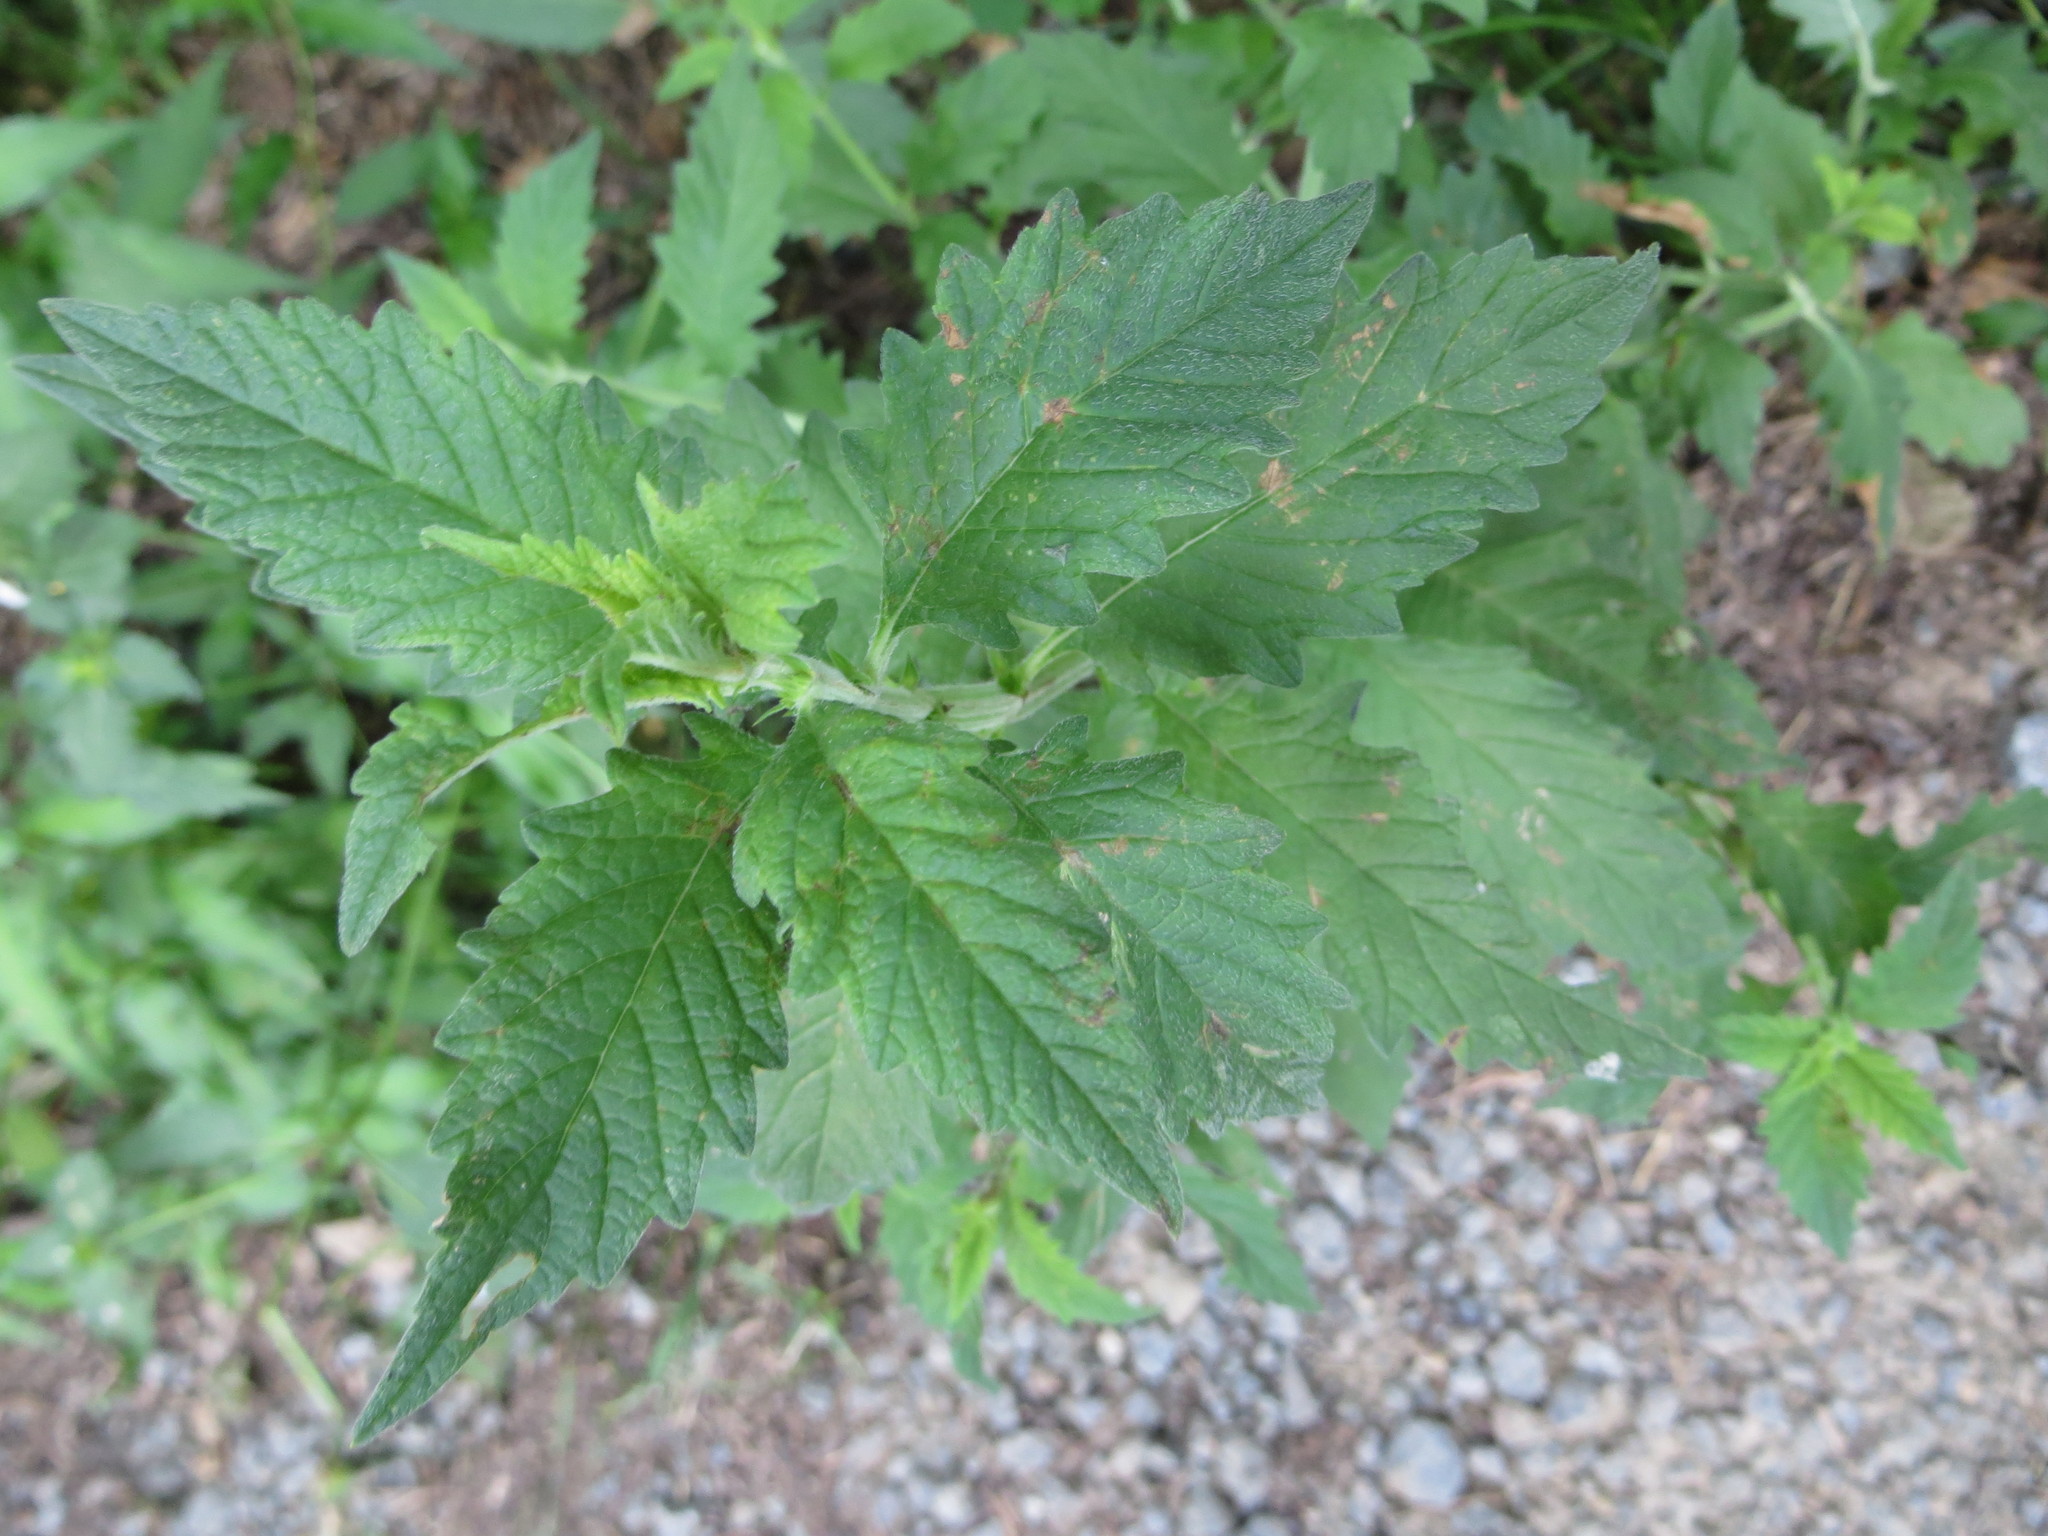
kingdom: Plantae
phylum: Tracheophyta
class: Magnoliopsida
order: Lamiales
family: Lamiaceae
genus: Lycopus
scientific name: Lycopus europaeus
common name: European bugleweed
